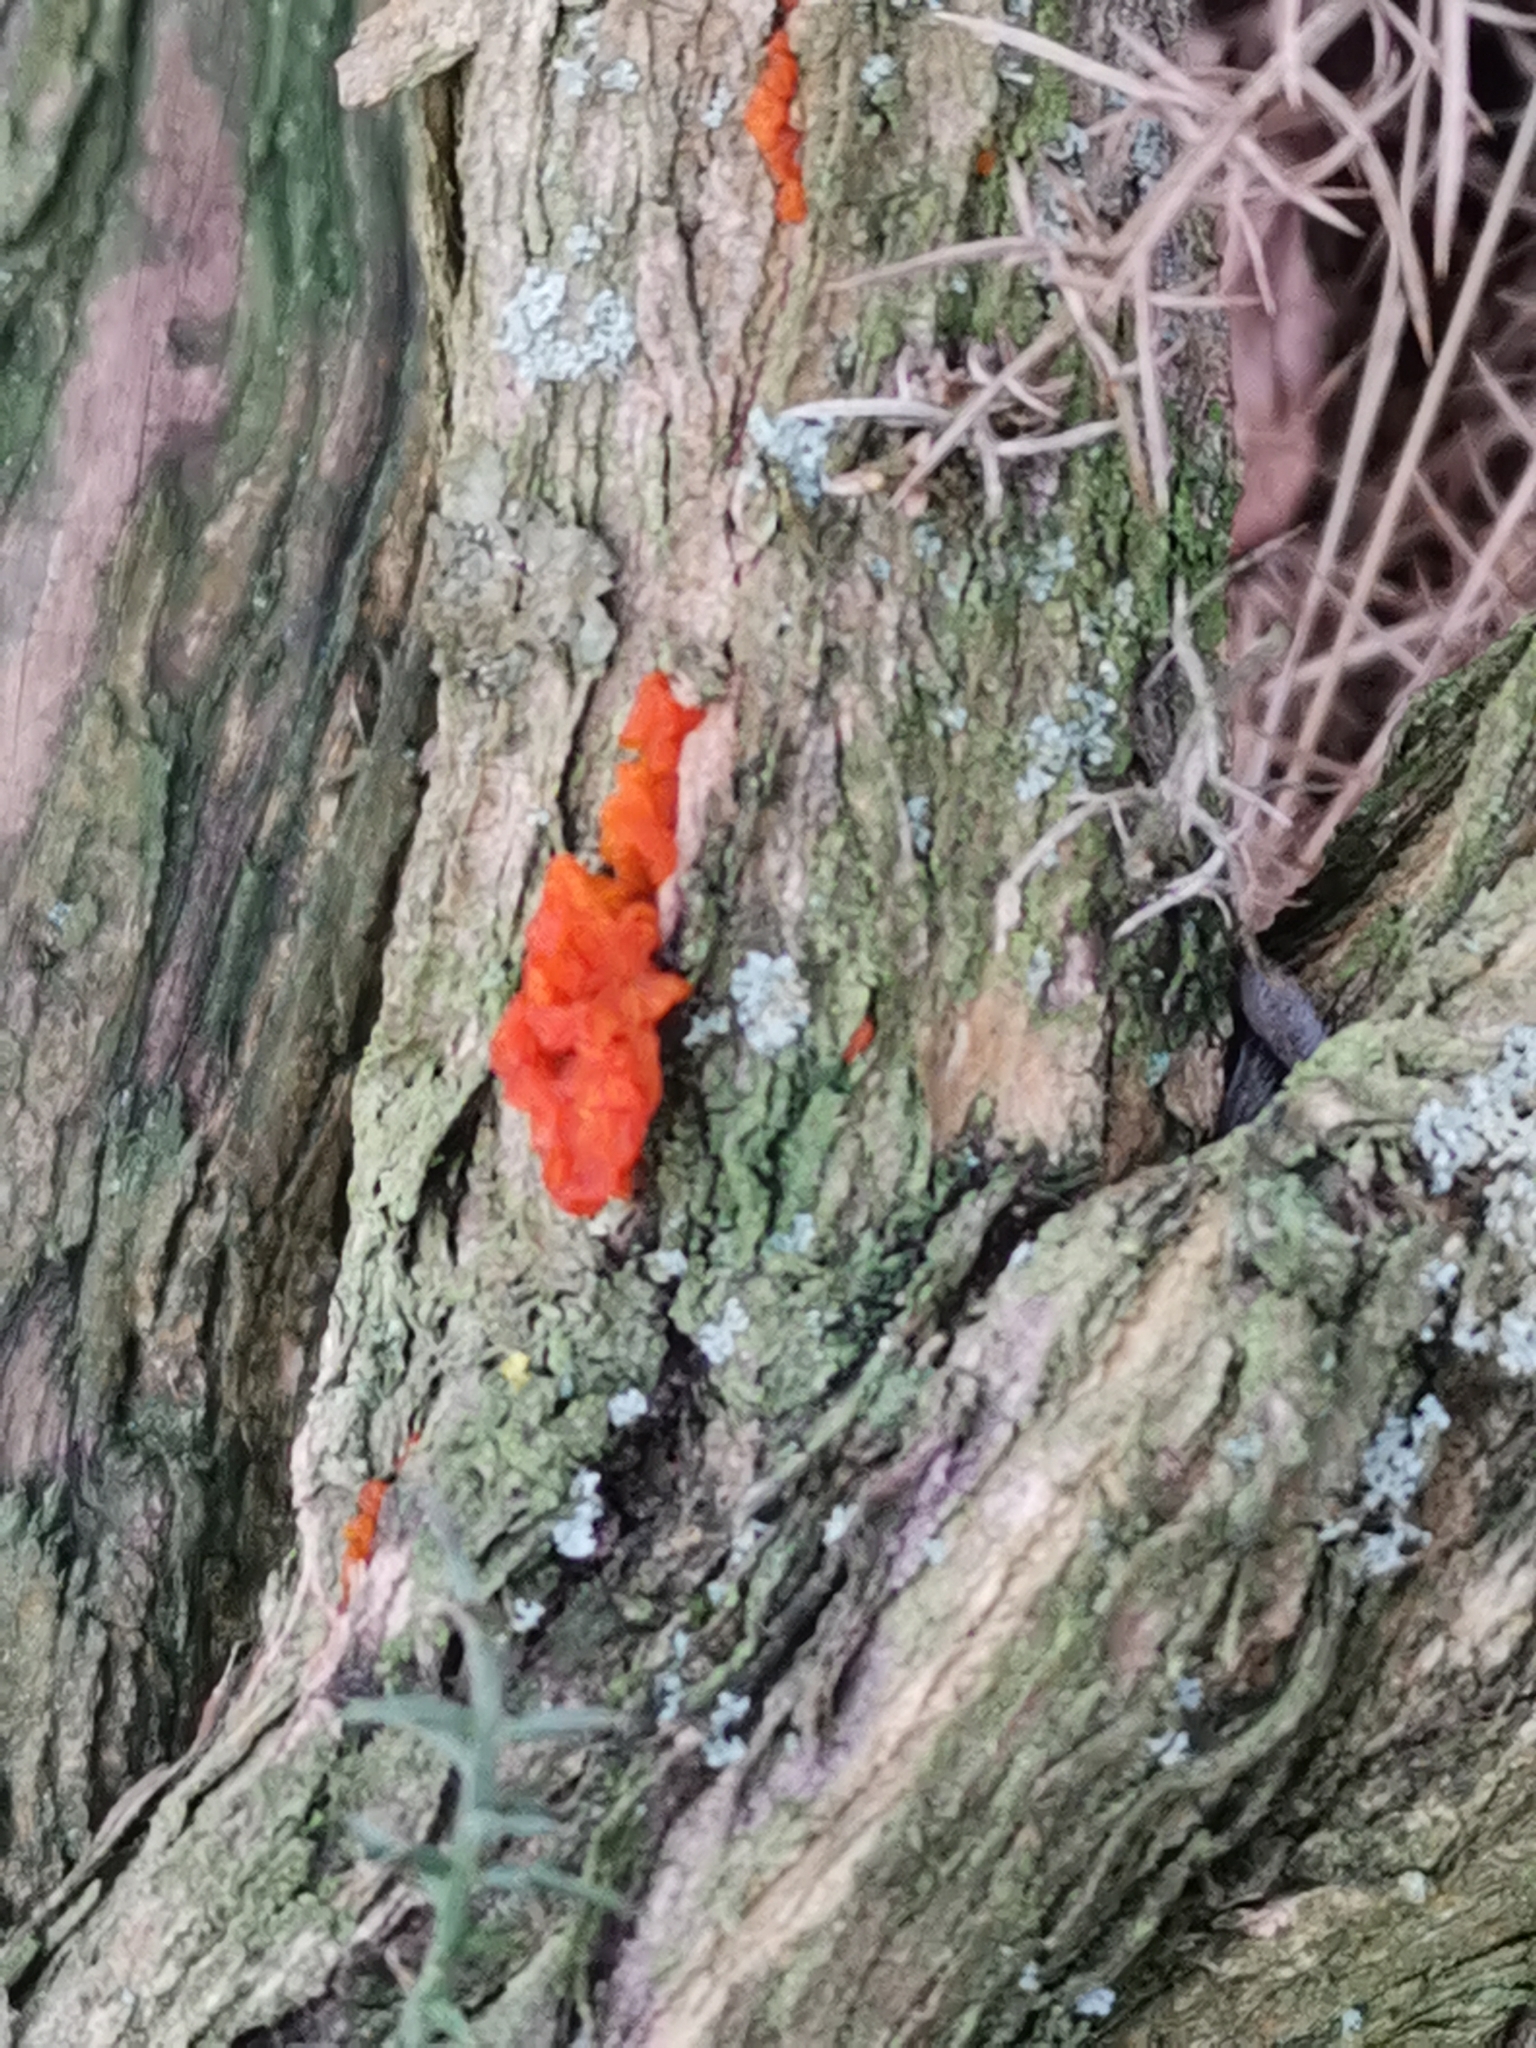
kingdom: Fungi
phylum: Basidiomycota
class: Tremellomycetes
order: Tremellales
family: Tremellaceae
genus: Tremella
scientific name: Tremella mesenterica
